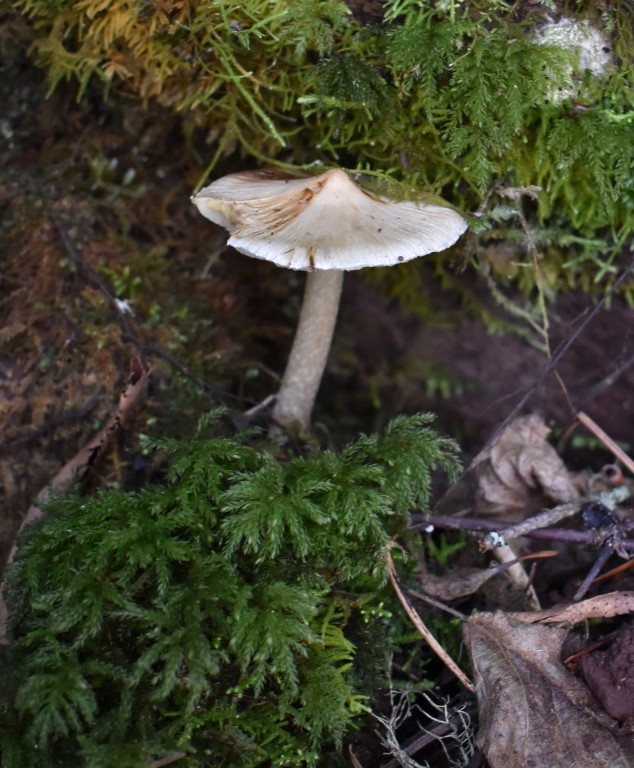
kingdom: Fungi
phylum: Basidiomycota
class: Agaricomycetes
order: Agaricales
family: Inocybaceae
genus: Pseudosperma
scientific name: Pseudosperma sororium
